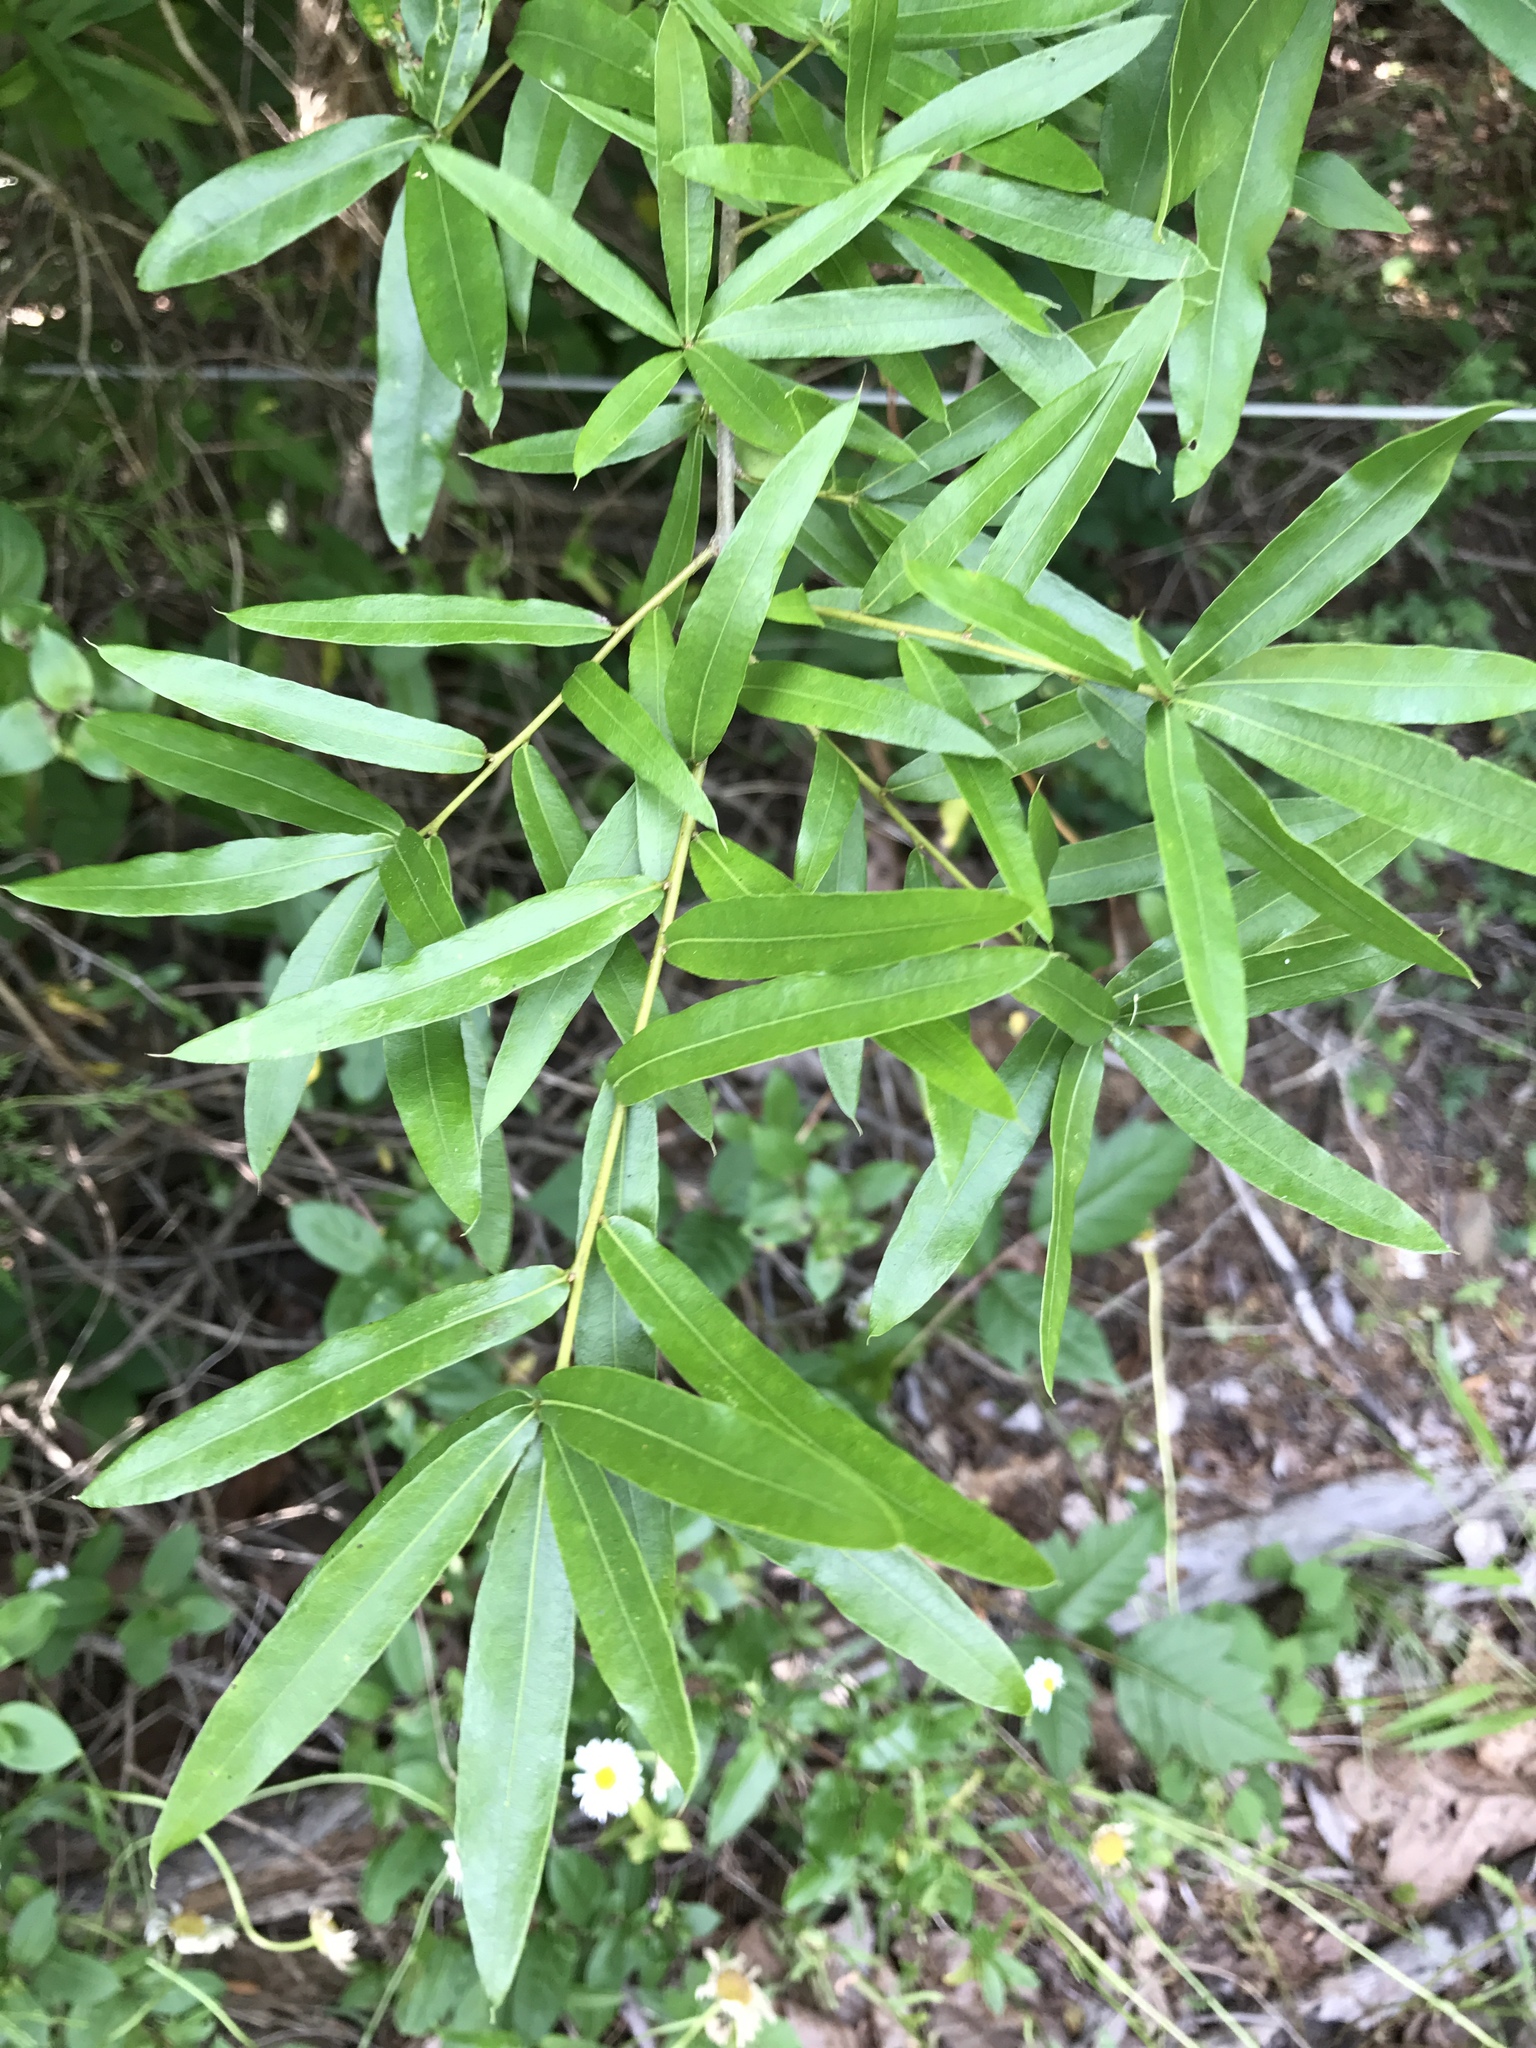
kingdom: Plantae
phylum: Tracheophyta
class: Magnoliopsida
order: Fagales
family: Fagaceae
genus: Quercus
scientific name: Quercus phellos
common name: Willow oak
